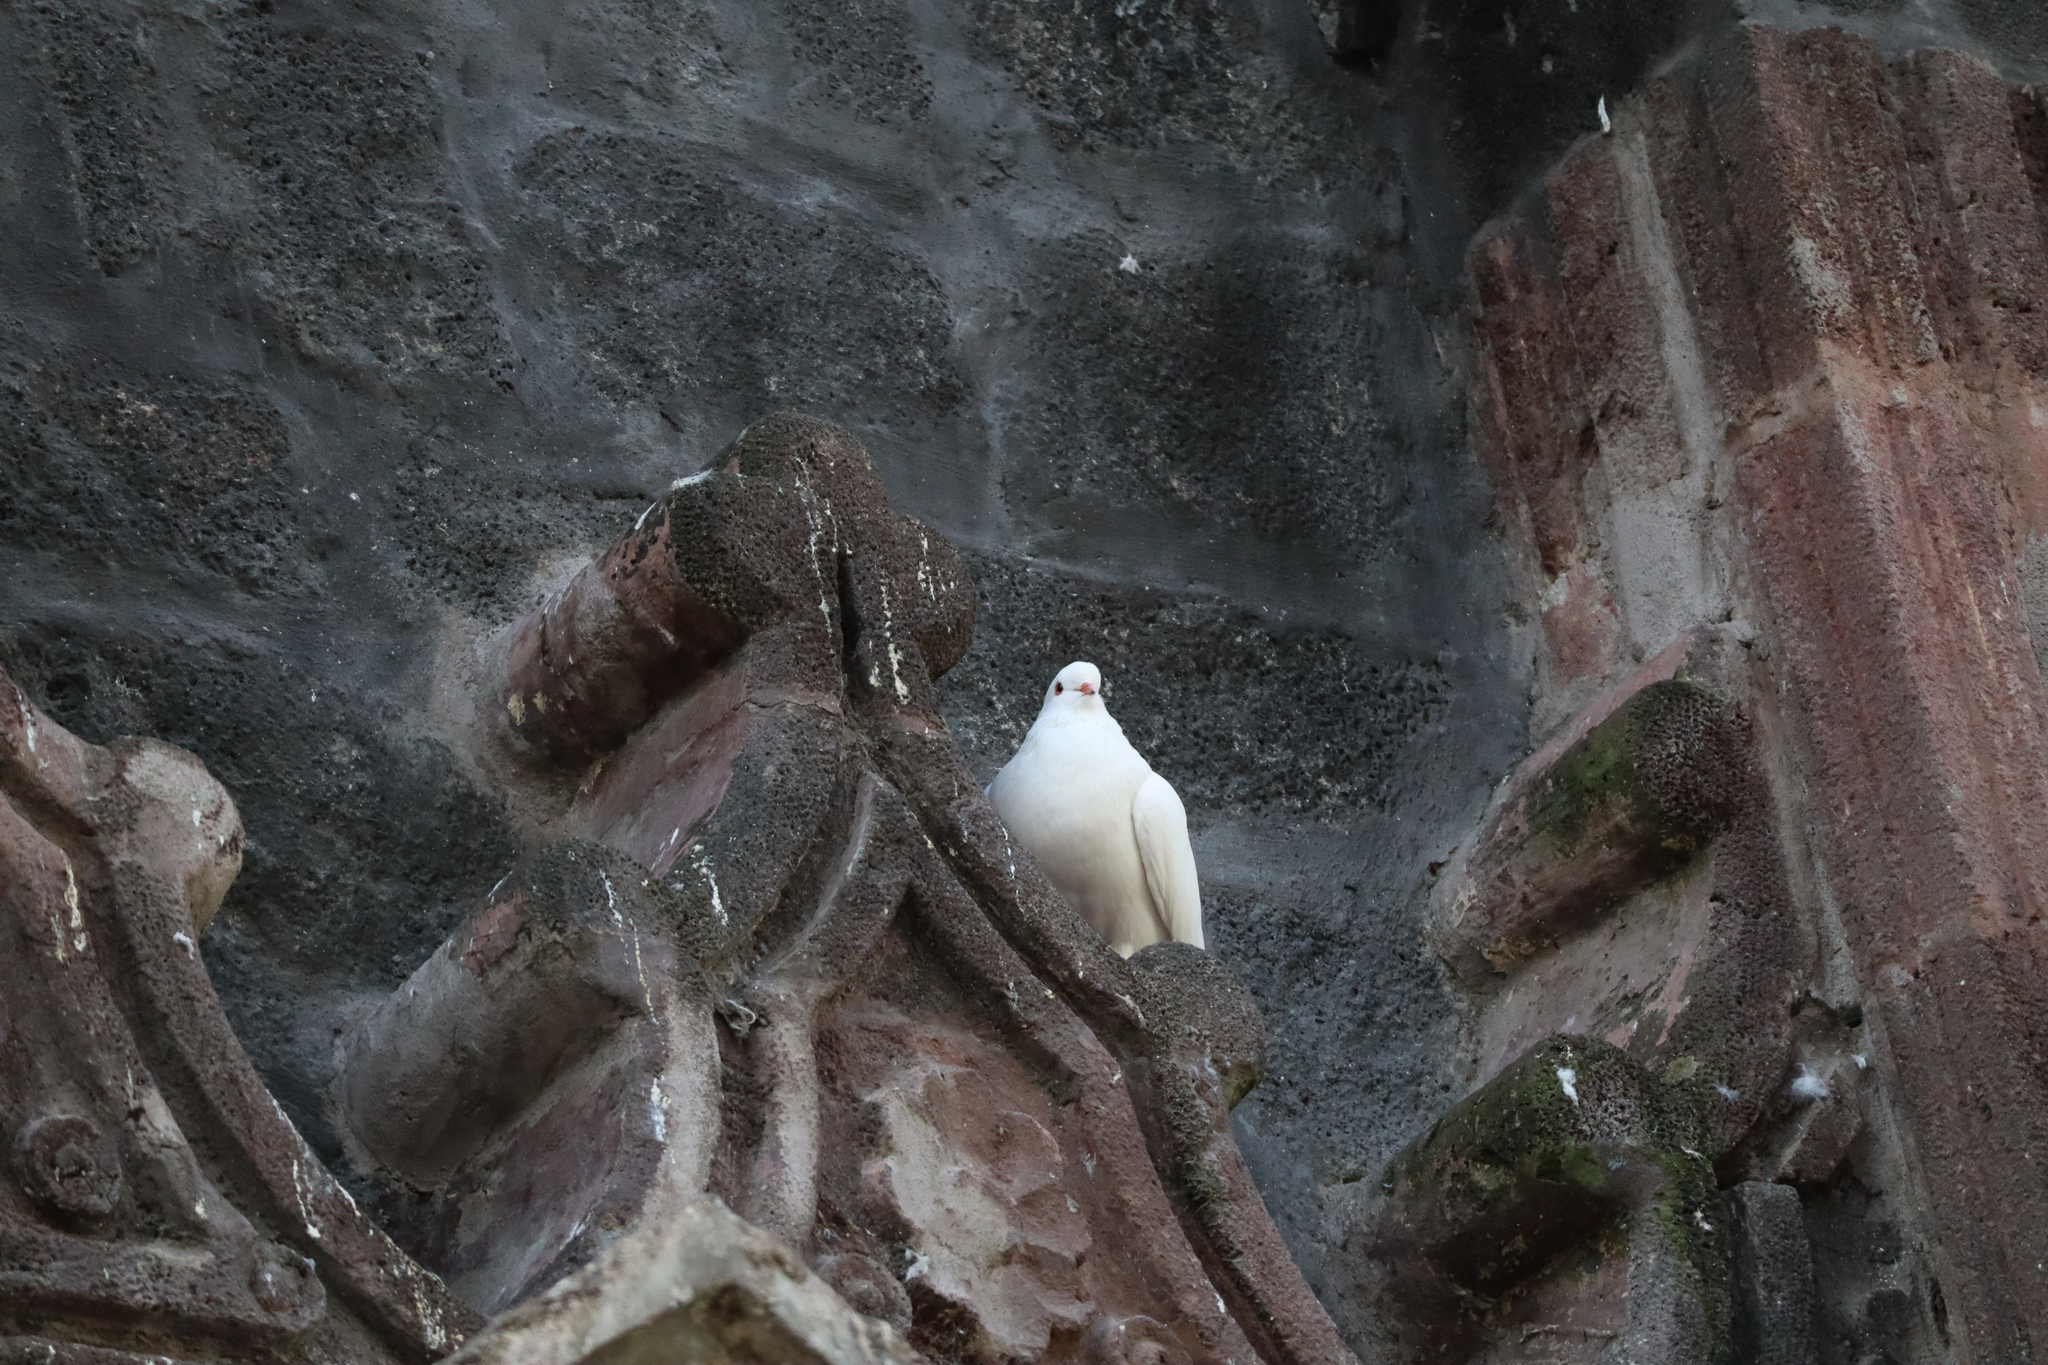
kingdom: Animalia
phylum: Chordata
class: Aves
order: Columbiformes
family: Columbidae
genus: Columba
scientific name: Columba livia
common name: Rock pigeon
